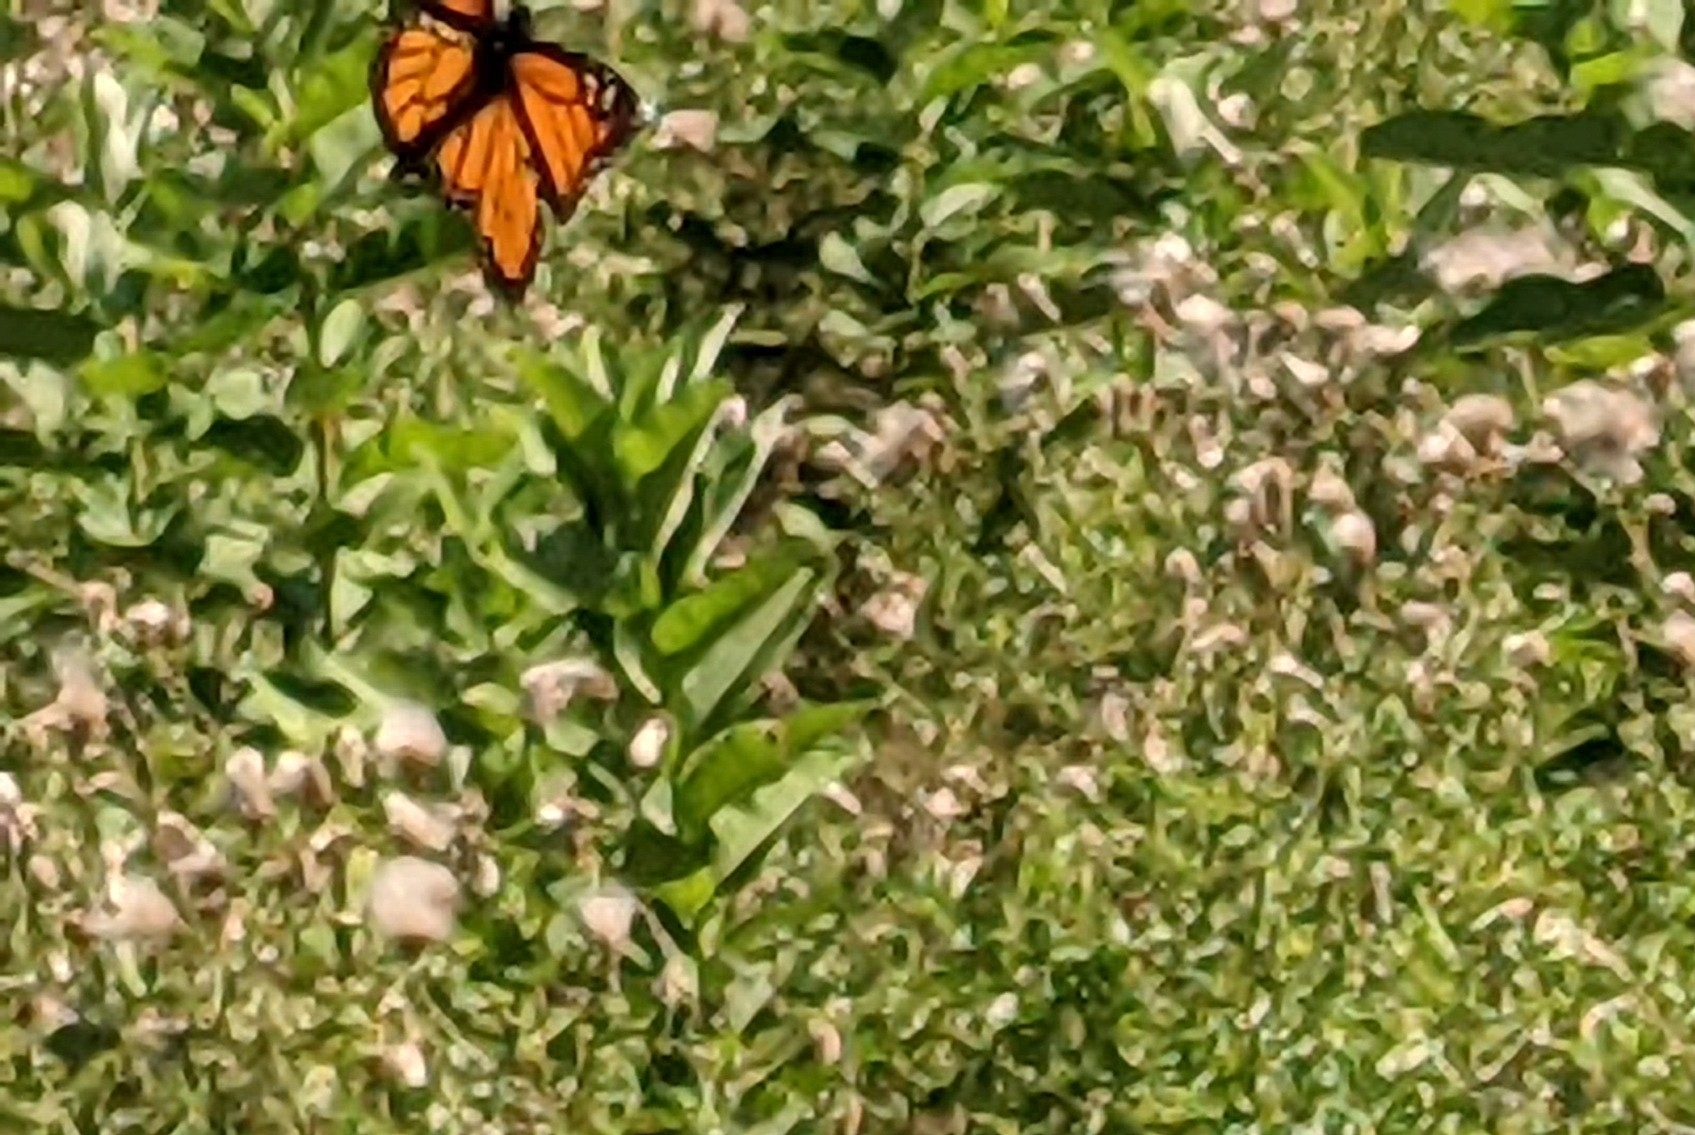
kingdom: Animalia
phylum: Arthropoda
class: Insecta
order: Lepidoptera
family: Nymphalidae
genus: Danaus
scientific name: Danaus plexippus
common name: Monarch
